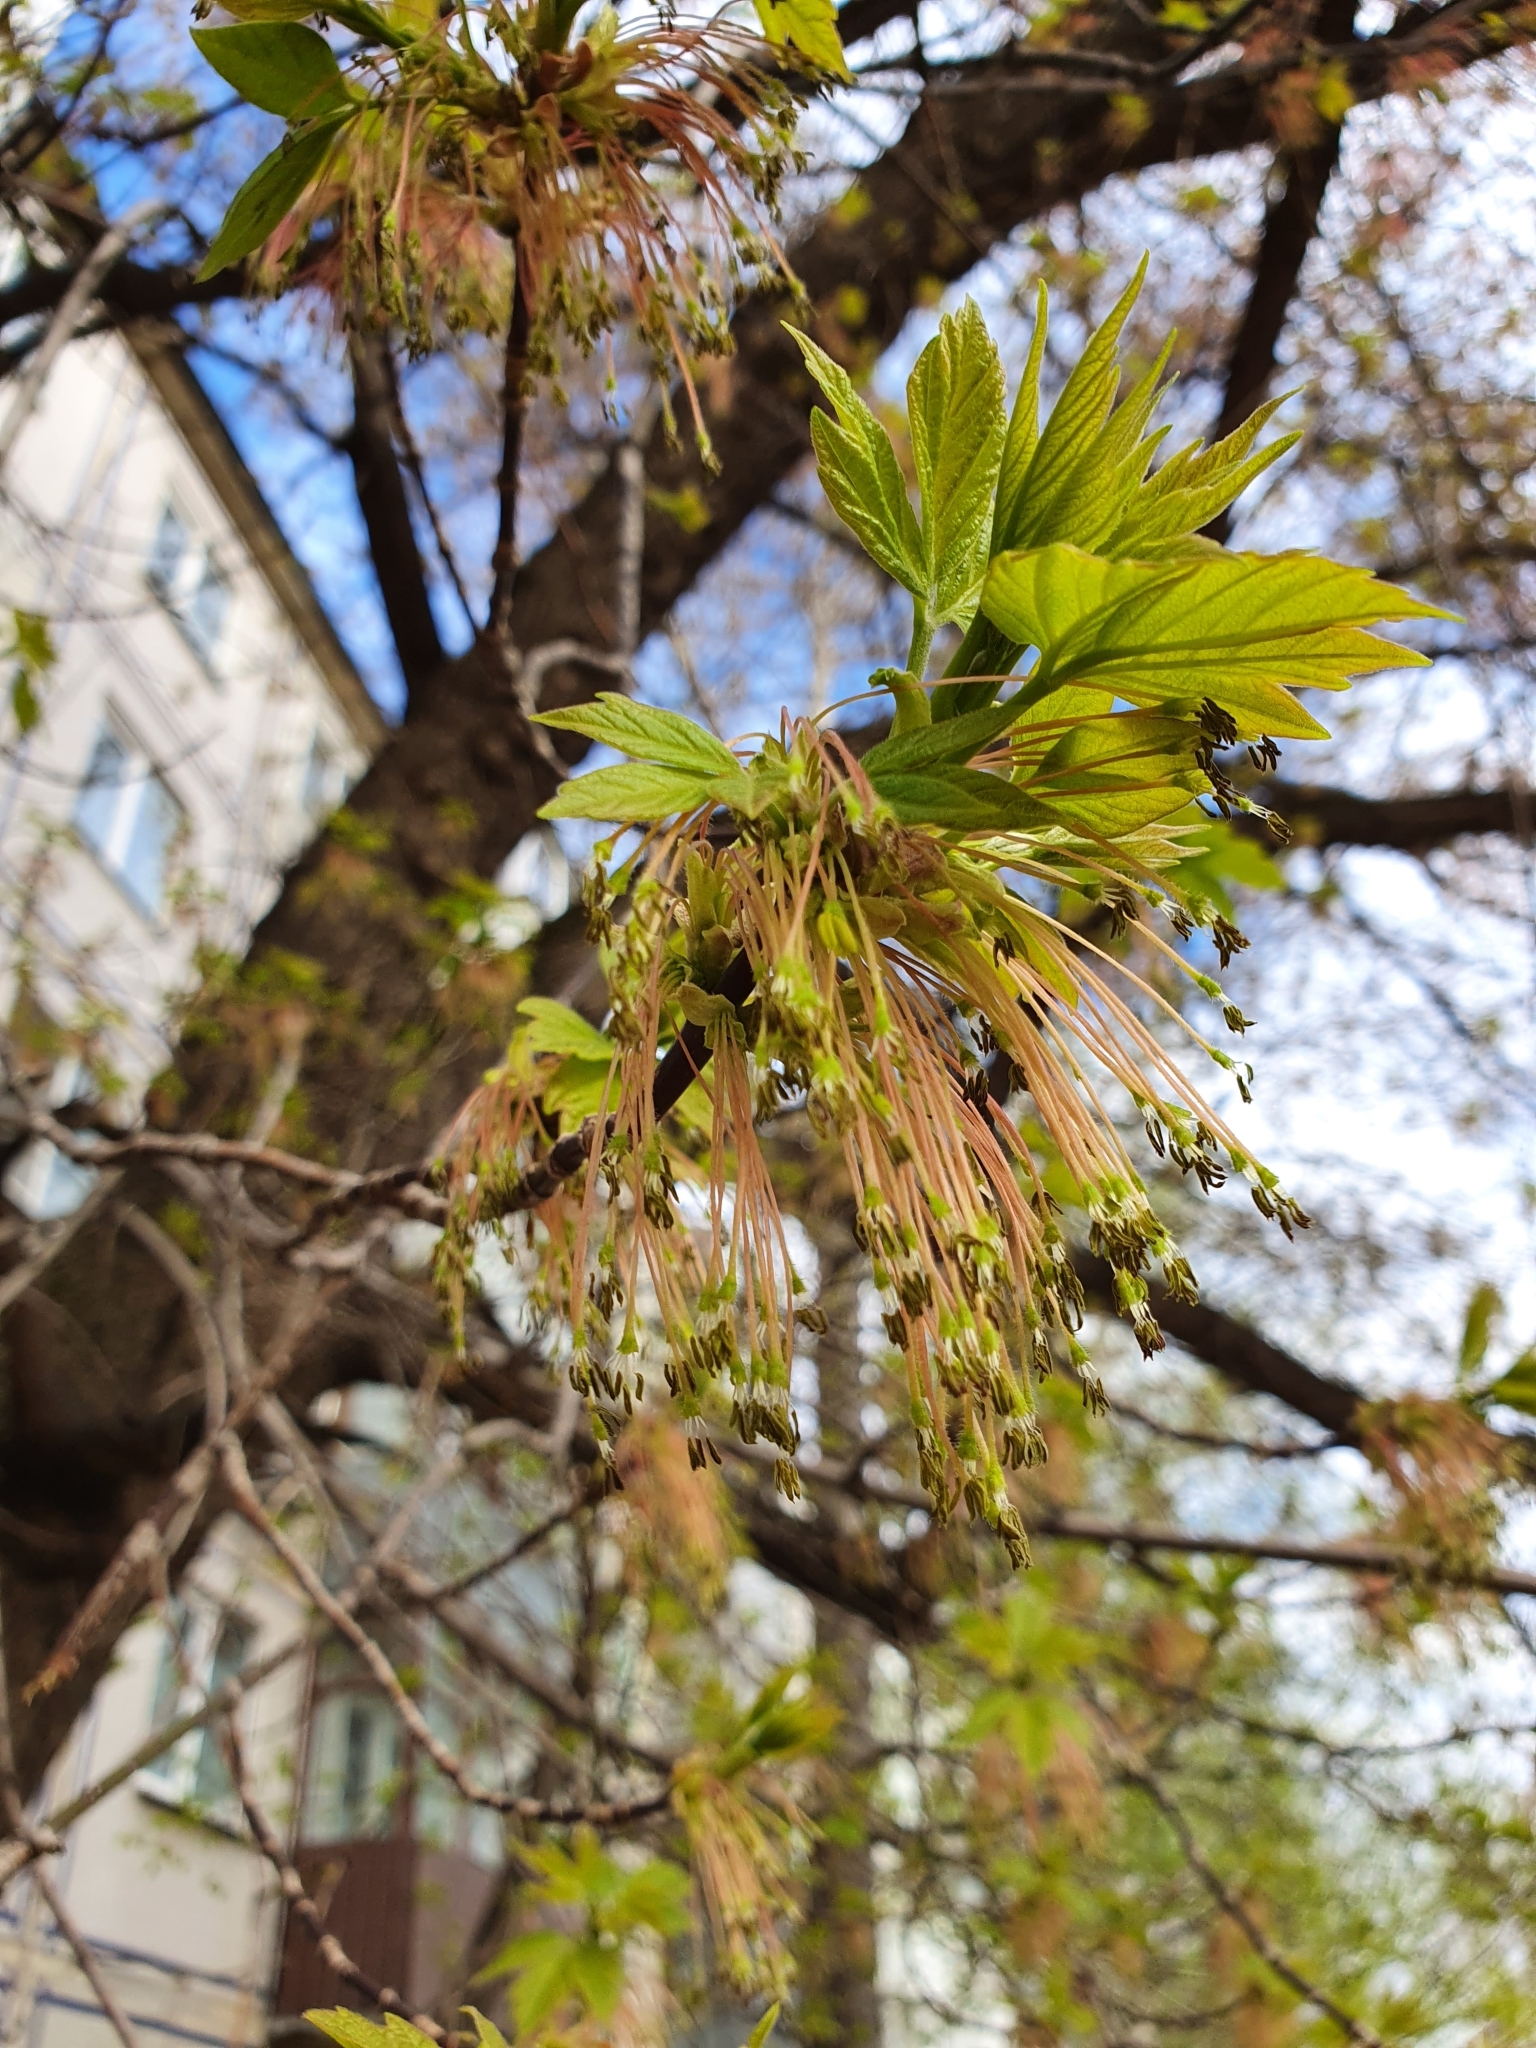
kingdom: Plantae
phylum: Tracheophyta
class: Magnoliopsida
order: Sapindales
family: Sapindaceae
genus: Acer
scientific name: Acer negundo
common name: Ashleaf maple
